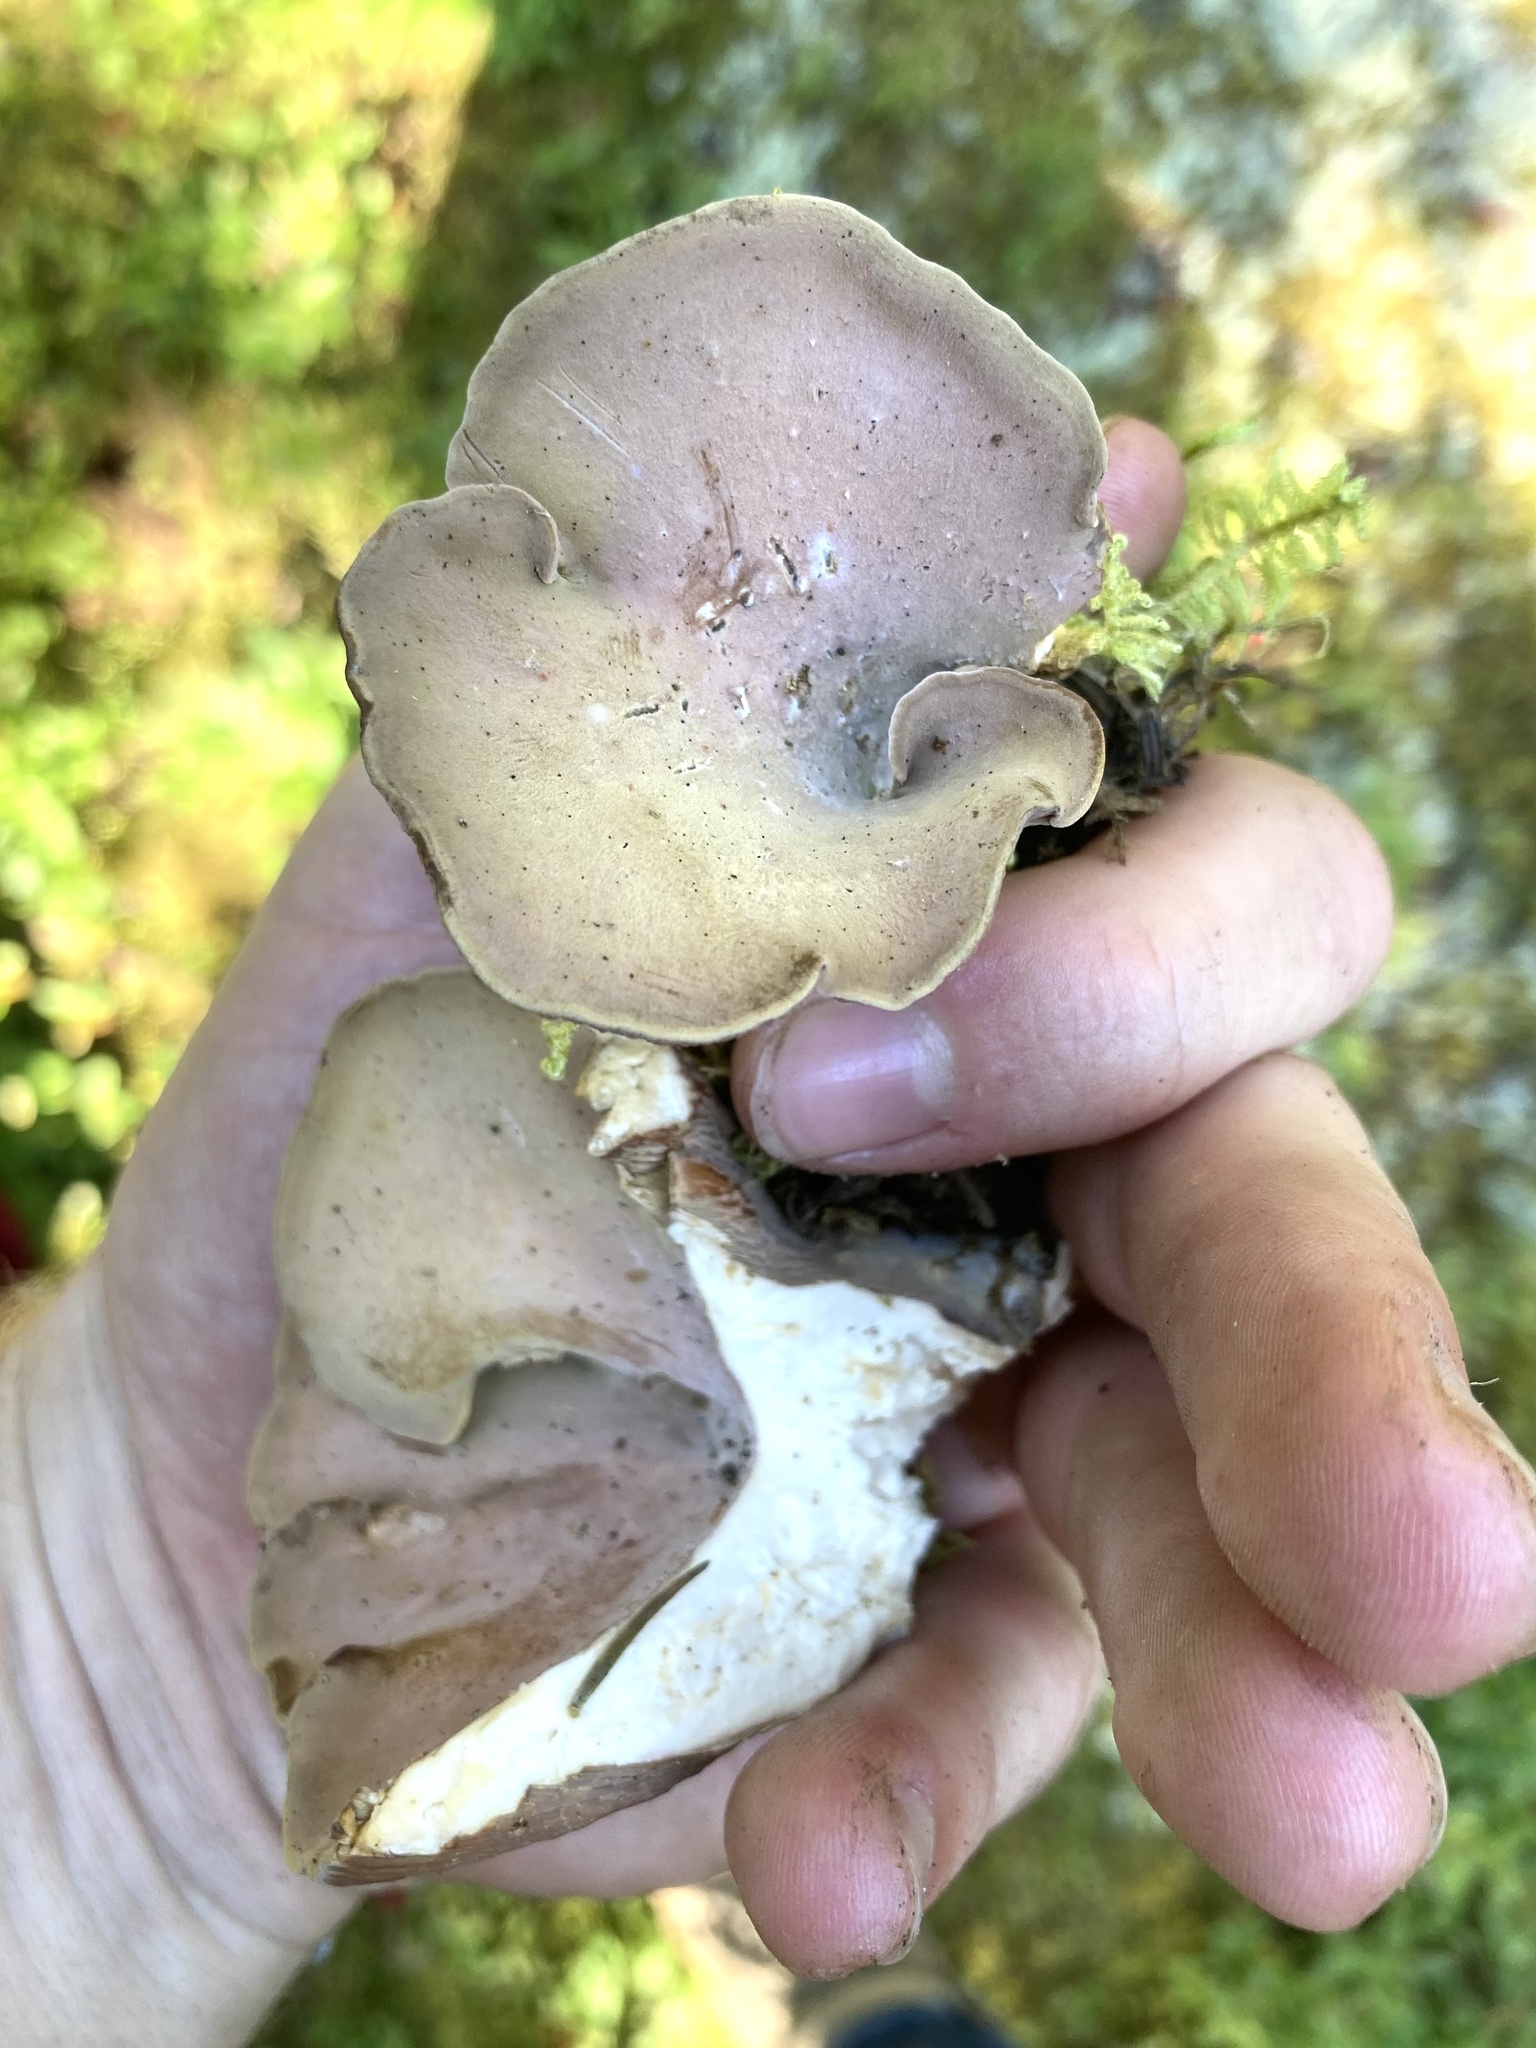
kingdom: Fungi
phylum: Basidiomycota
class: Agaricomycetes
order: Gomphales
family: Gomphaceae
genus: Gomphus
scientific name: Gomphus clavatus
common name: Pig's ear
